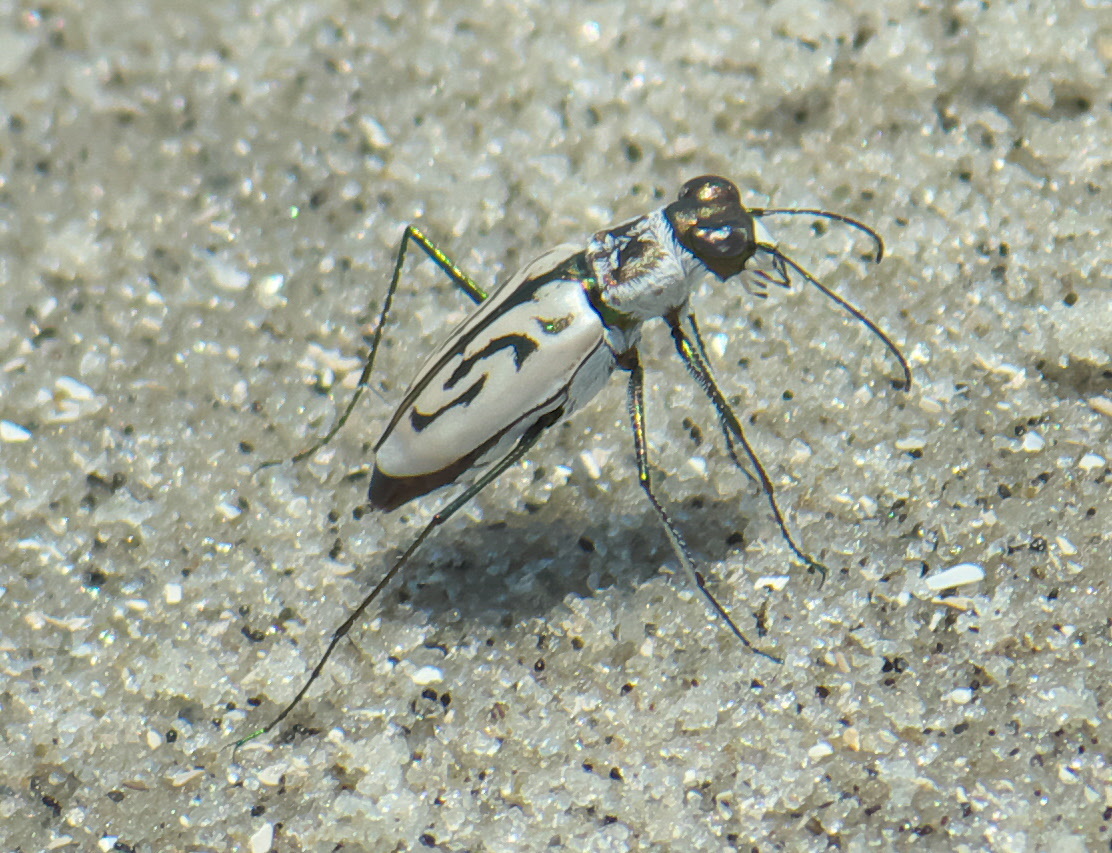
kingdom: Animalia
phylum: Arthropoda
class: Insecta
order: Coleoptera
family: Carabidae
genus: Habroscelimorpha
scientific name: Habroscelimorpha dorsalis
